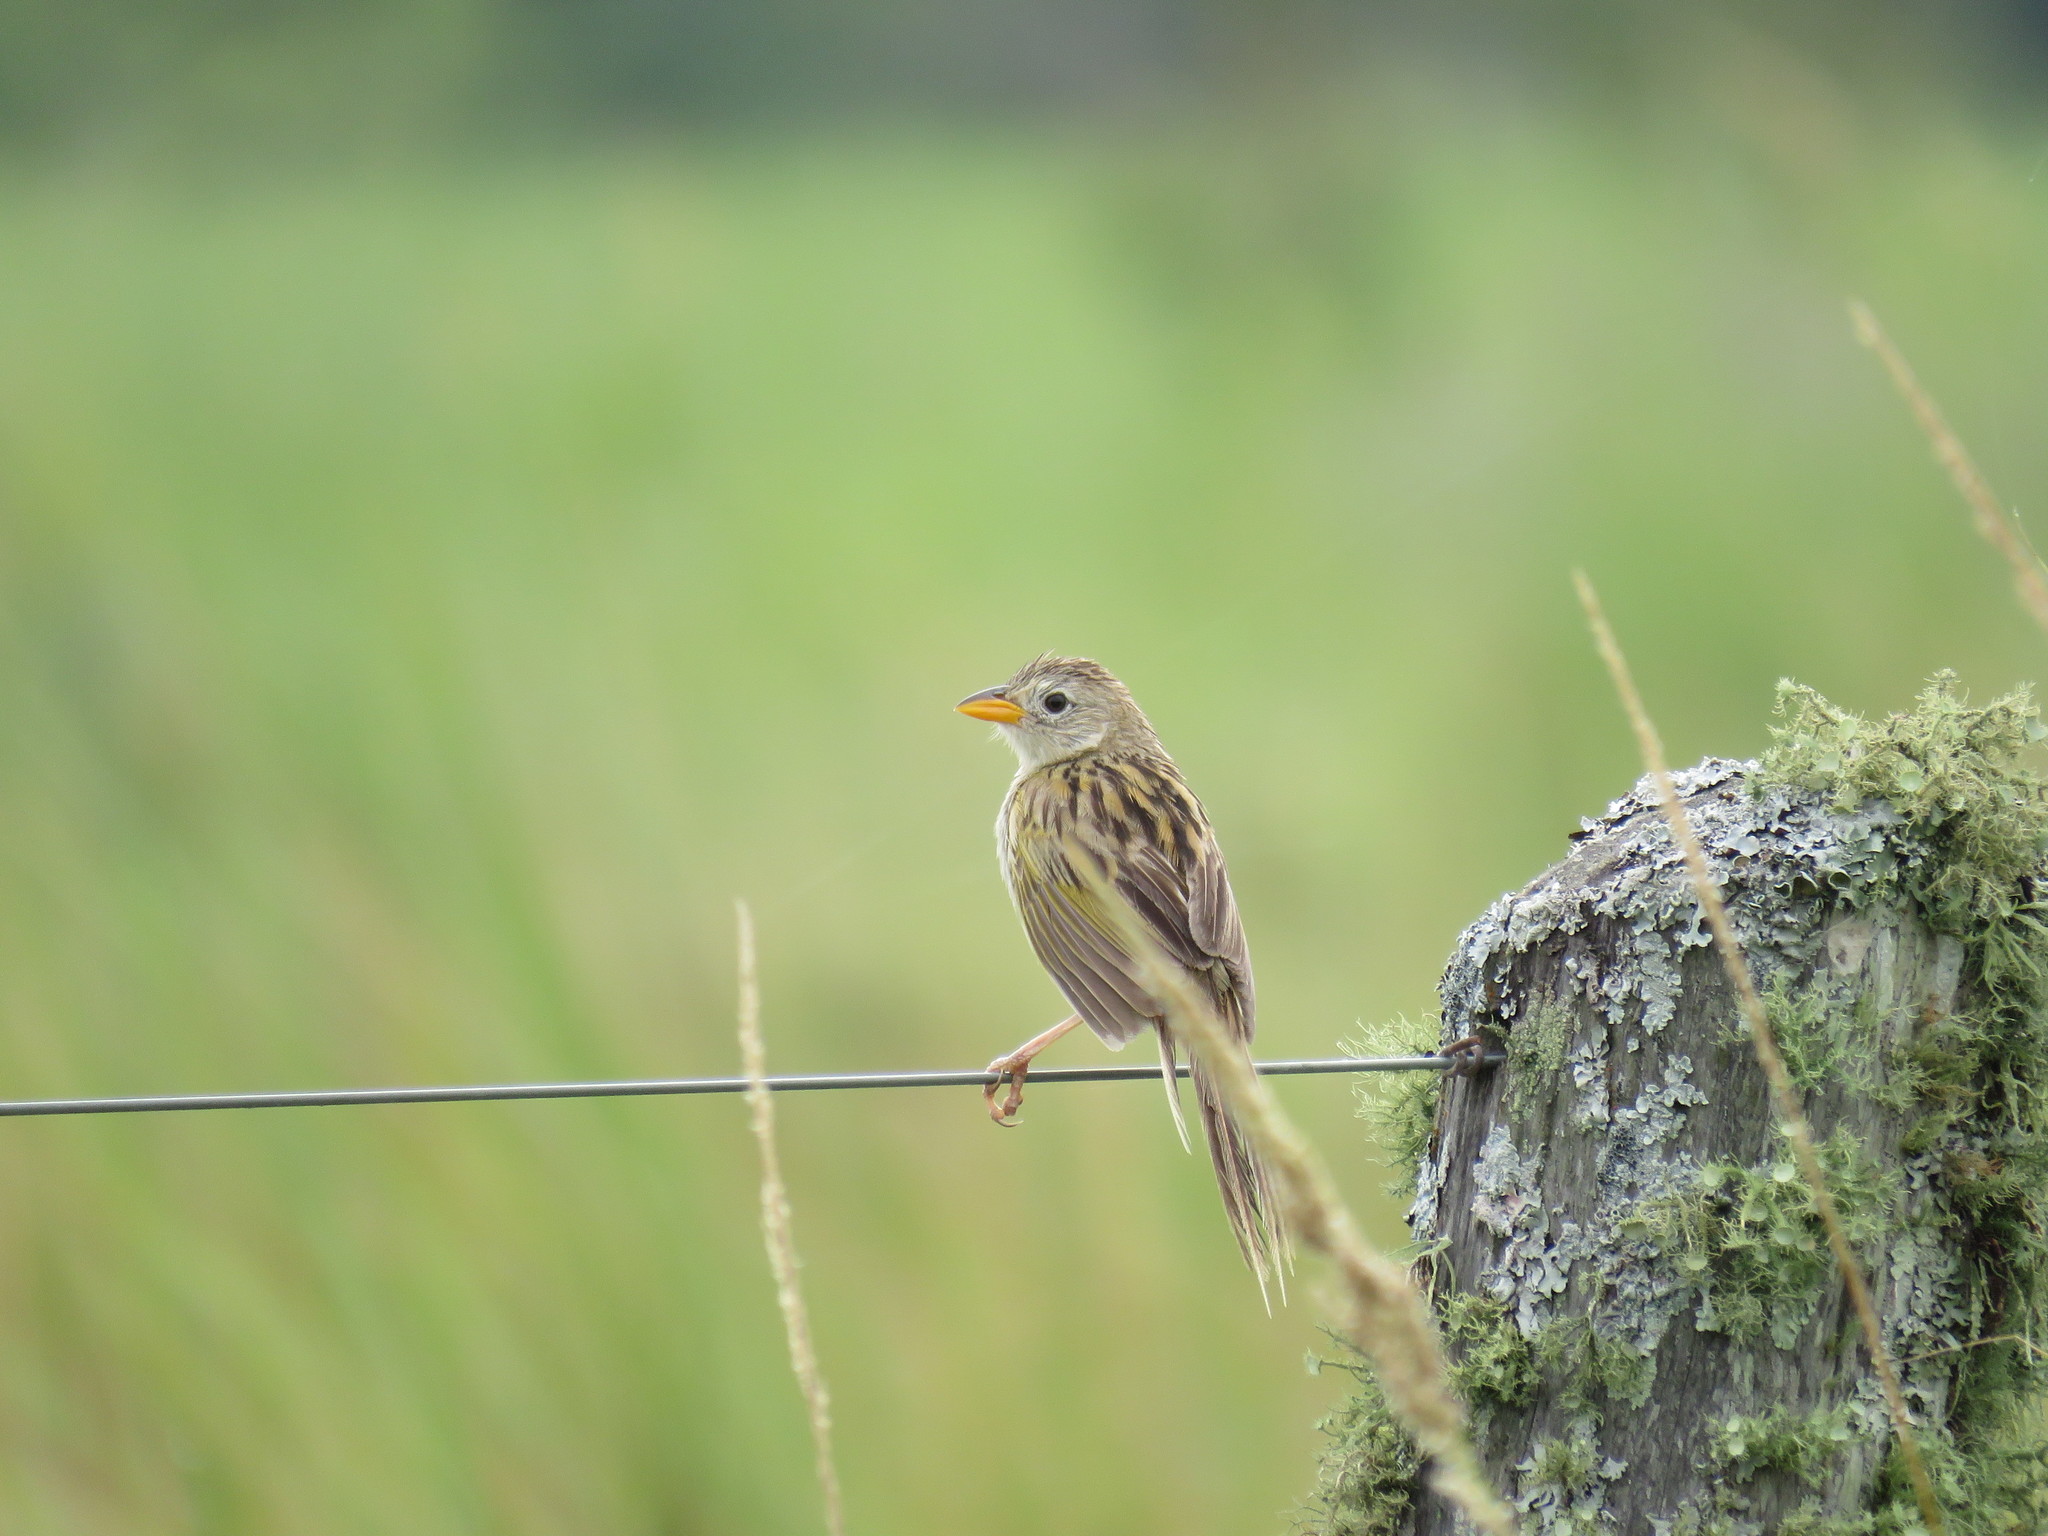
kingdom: Animalia
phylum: Chordata
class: Aves
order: Passeriformes
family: Thraupidae
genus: Emberizoides
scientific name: Emberizoides herbicola
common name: Wedge-tailed grass-finch
